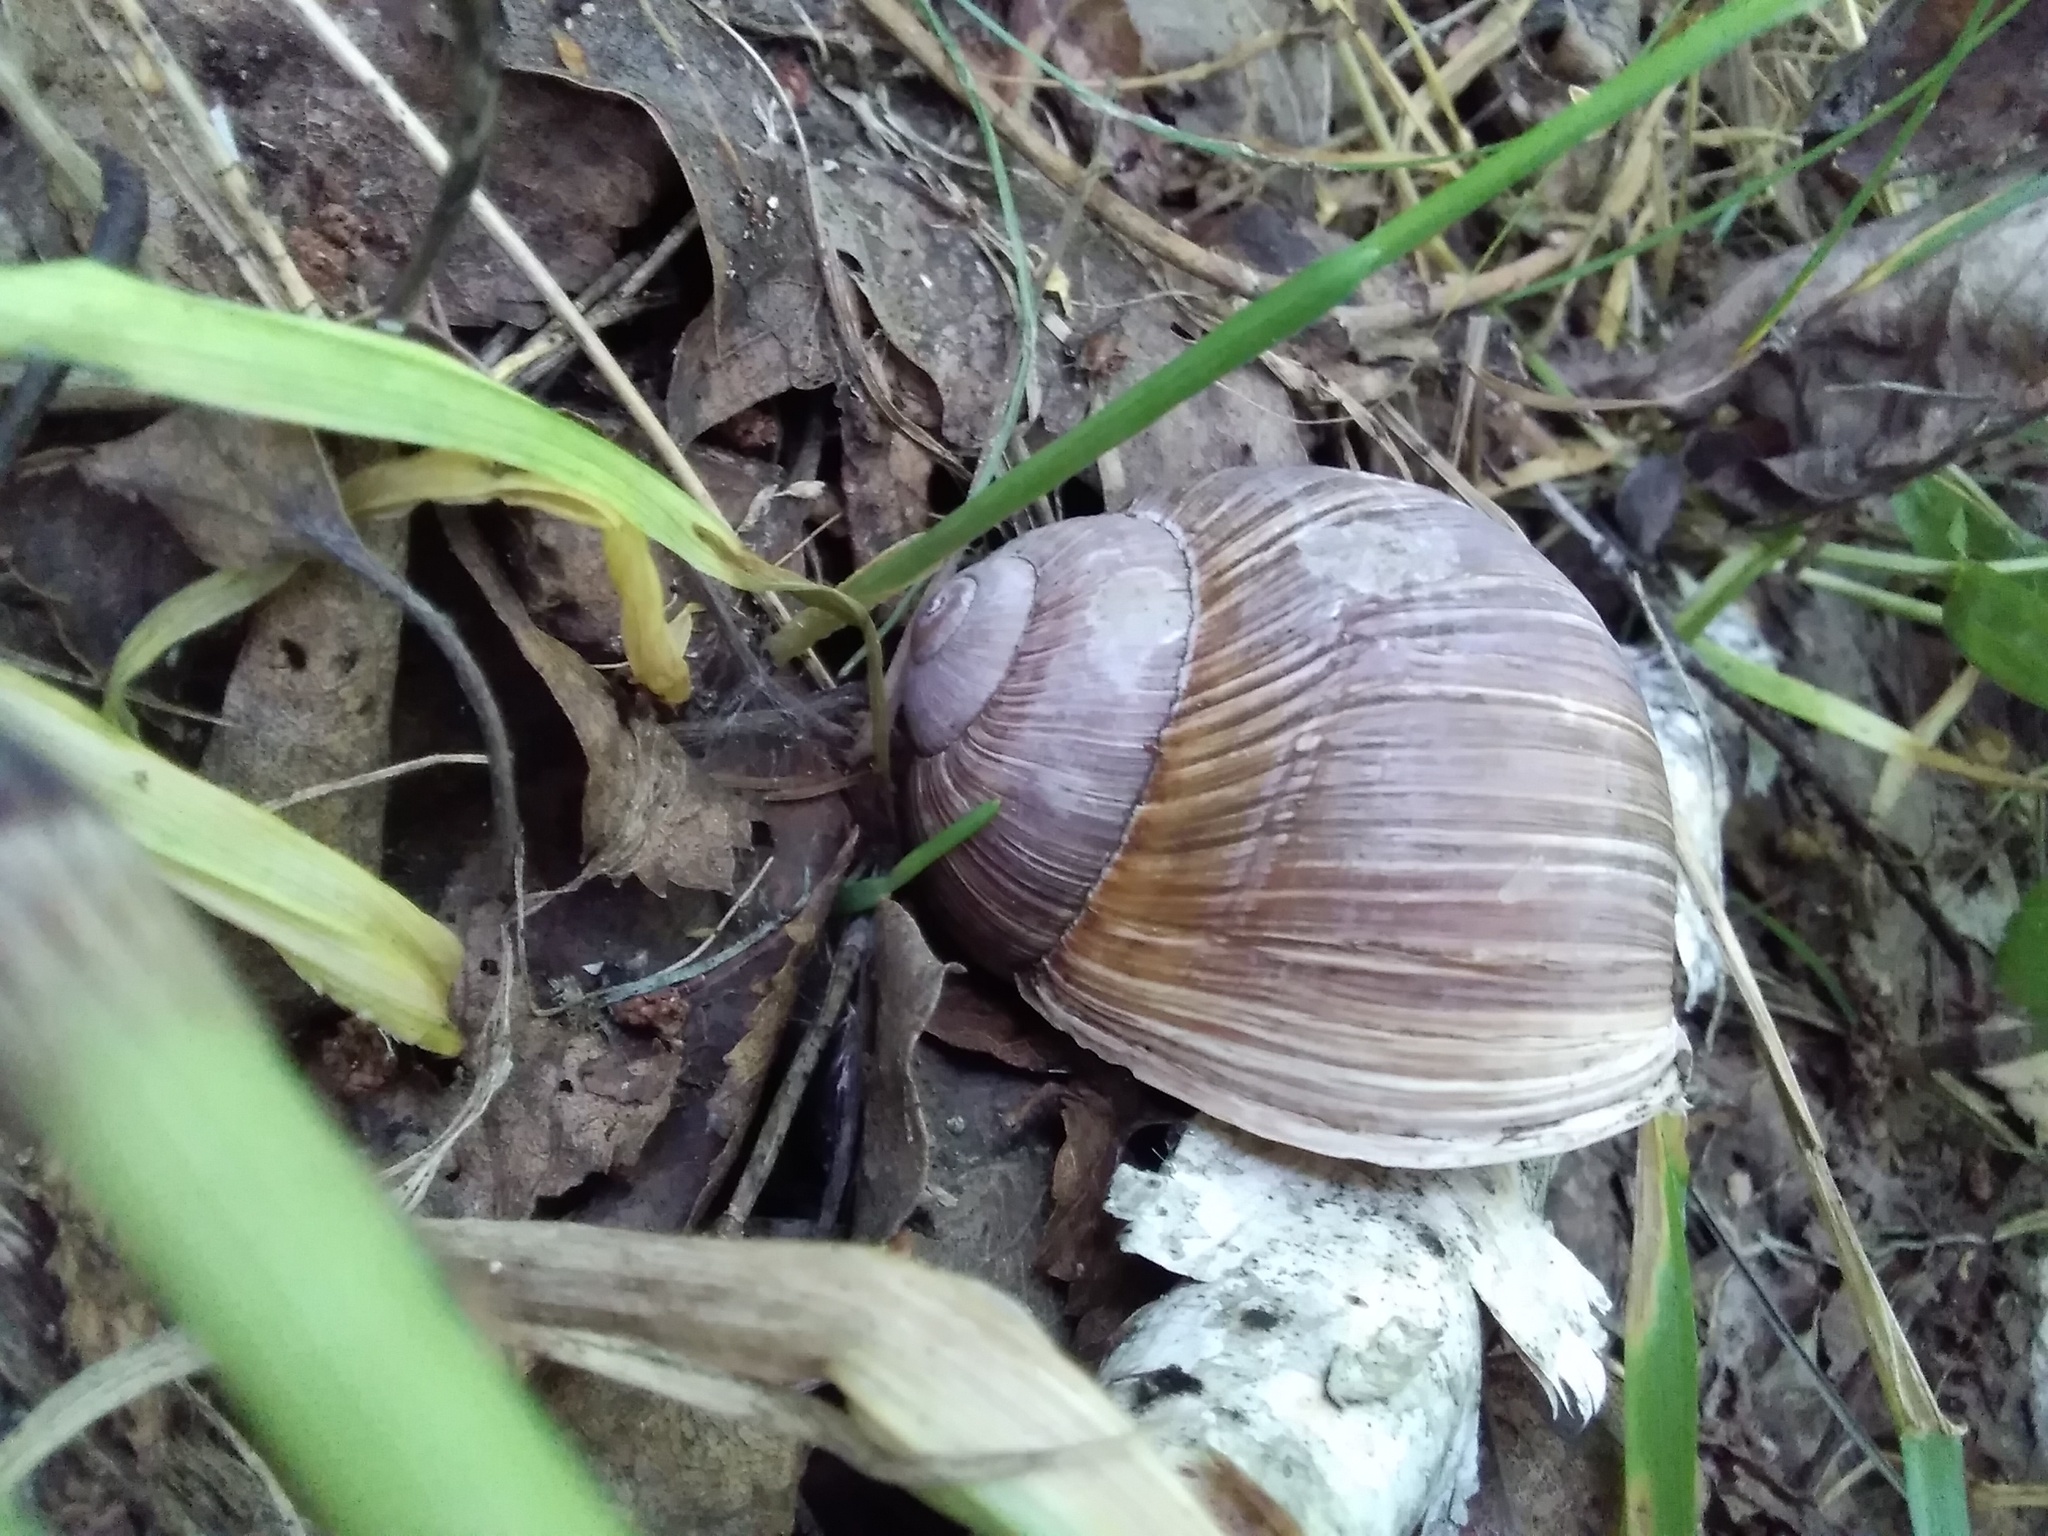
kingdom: Animalia
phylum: Mollusca
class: Gastropoda
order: Stylommatophora
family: Helicidae
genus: Helix
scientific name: Helix pomatia
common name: Roman snail
